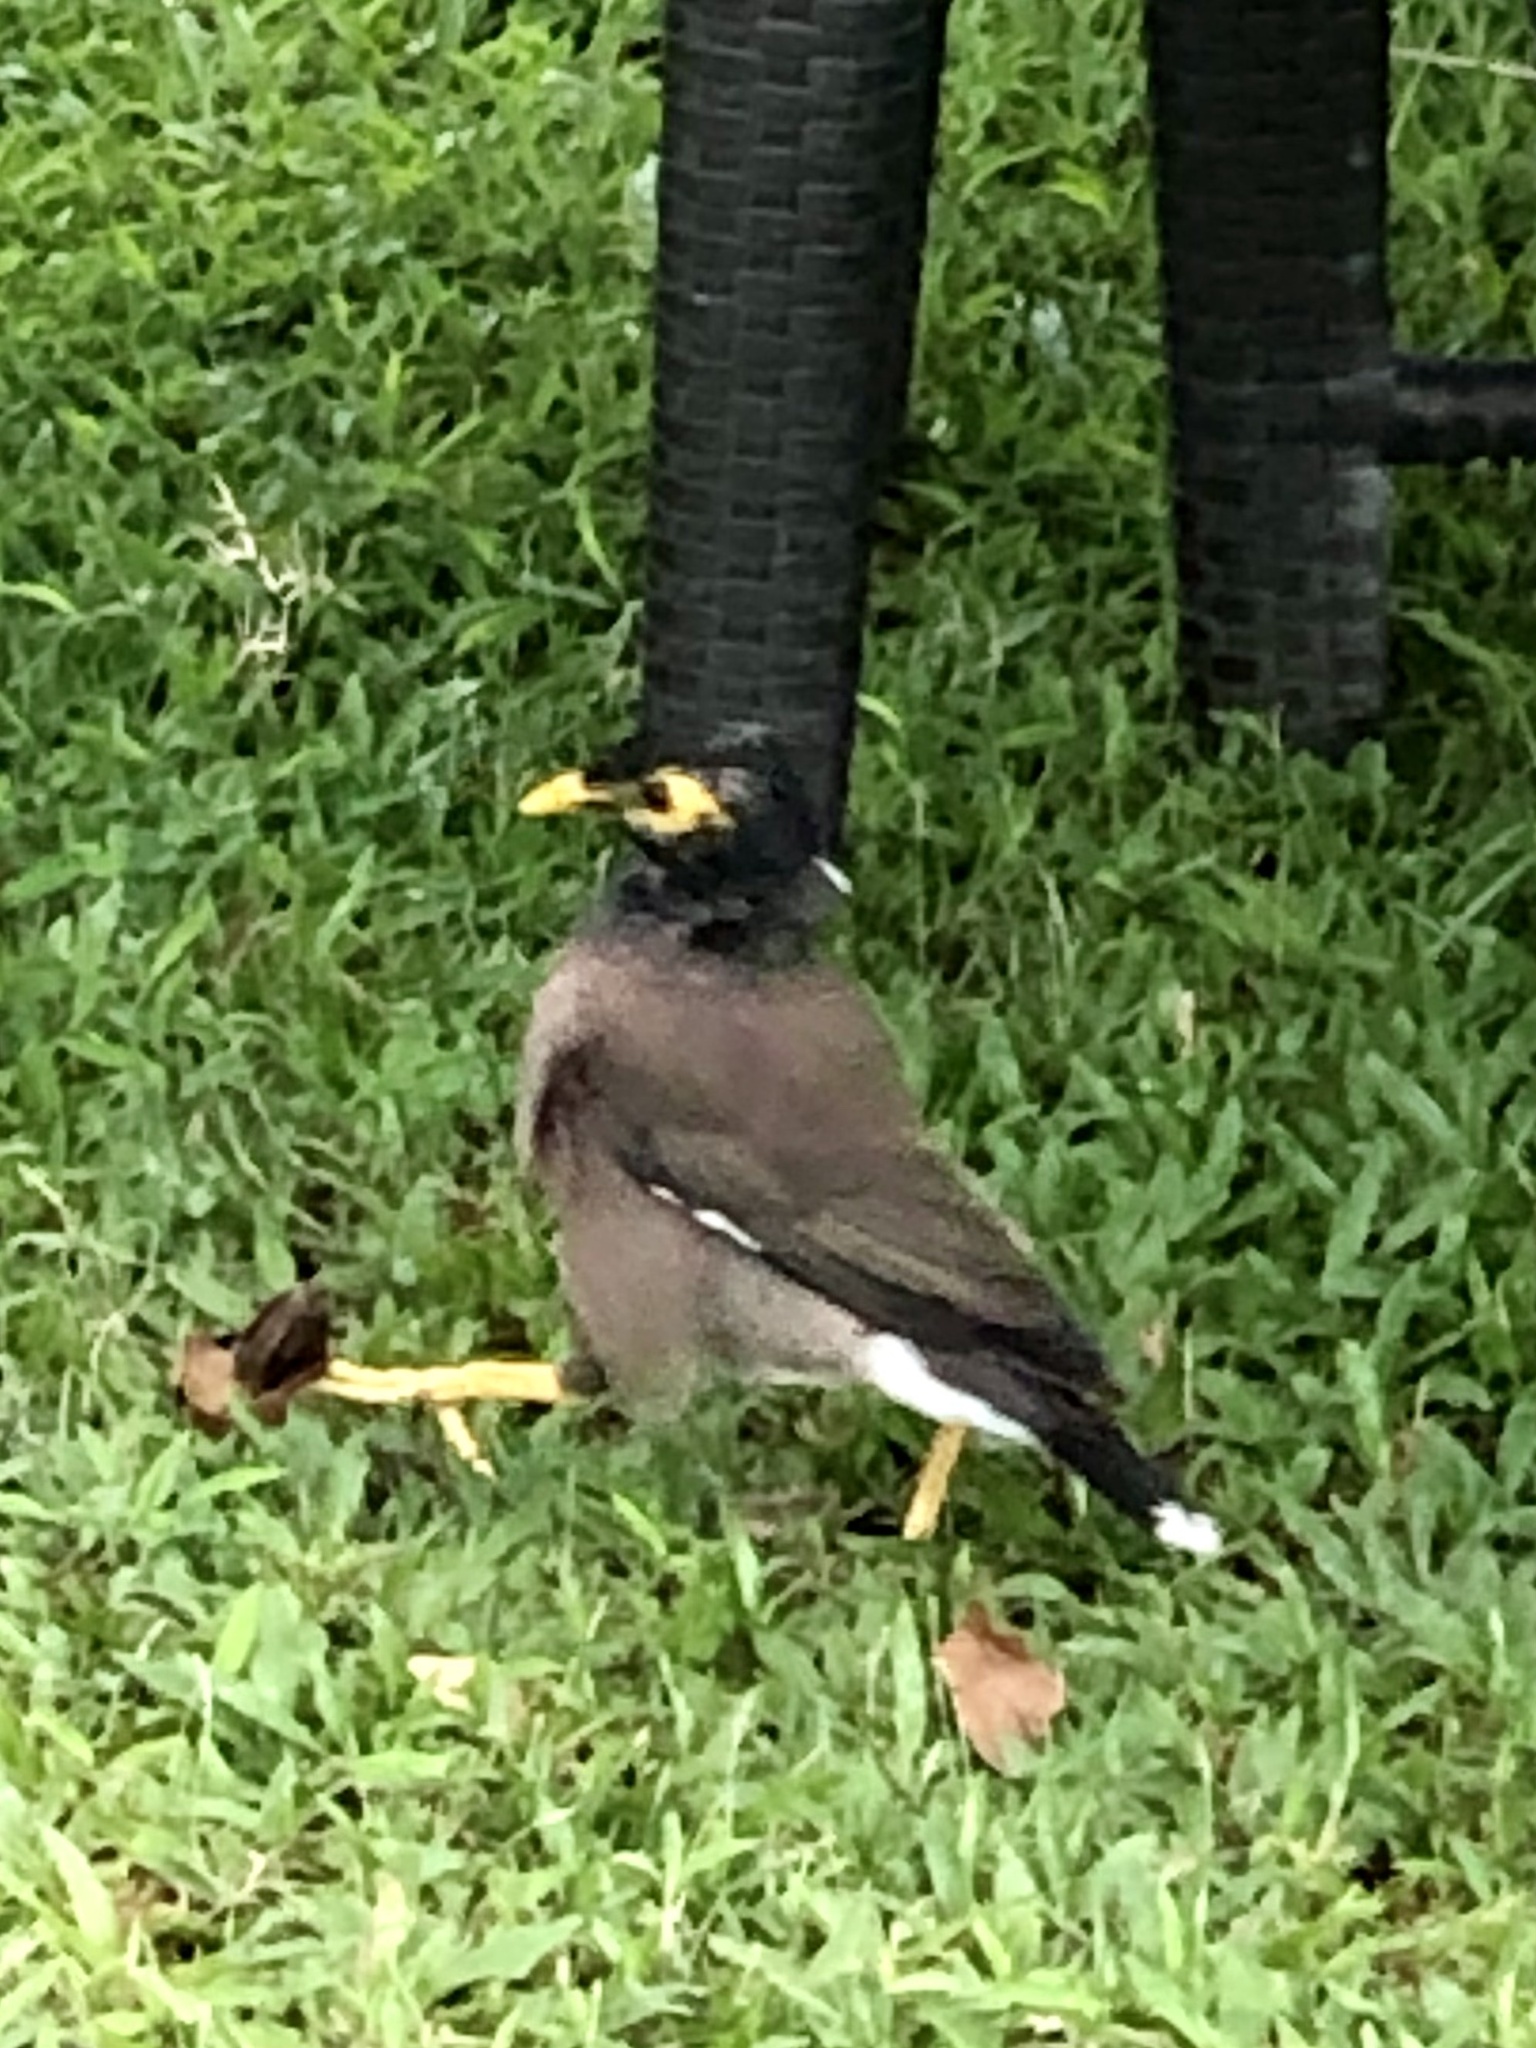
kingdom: Animalia
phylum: Chordata
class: Aves
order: Passeriformes
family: Sturnidae
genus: Acridotheres
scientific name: Acridotheres tristis
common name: Common myna
